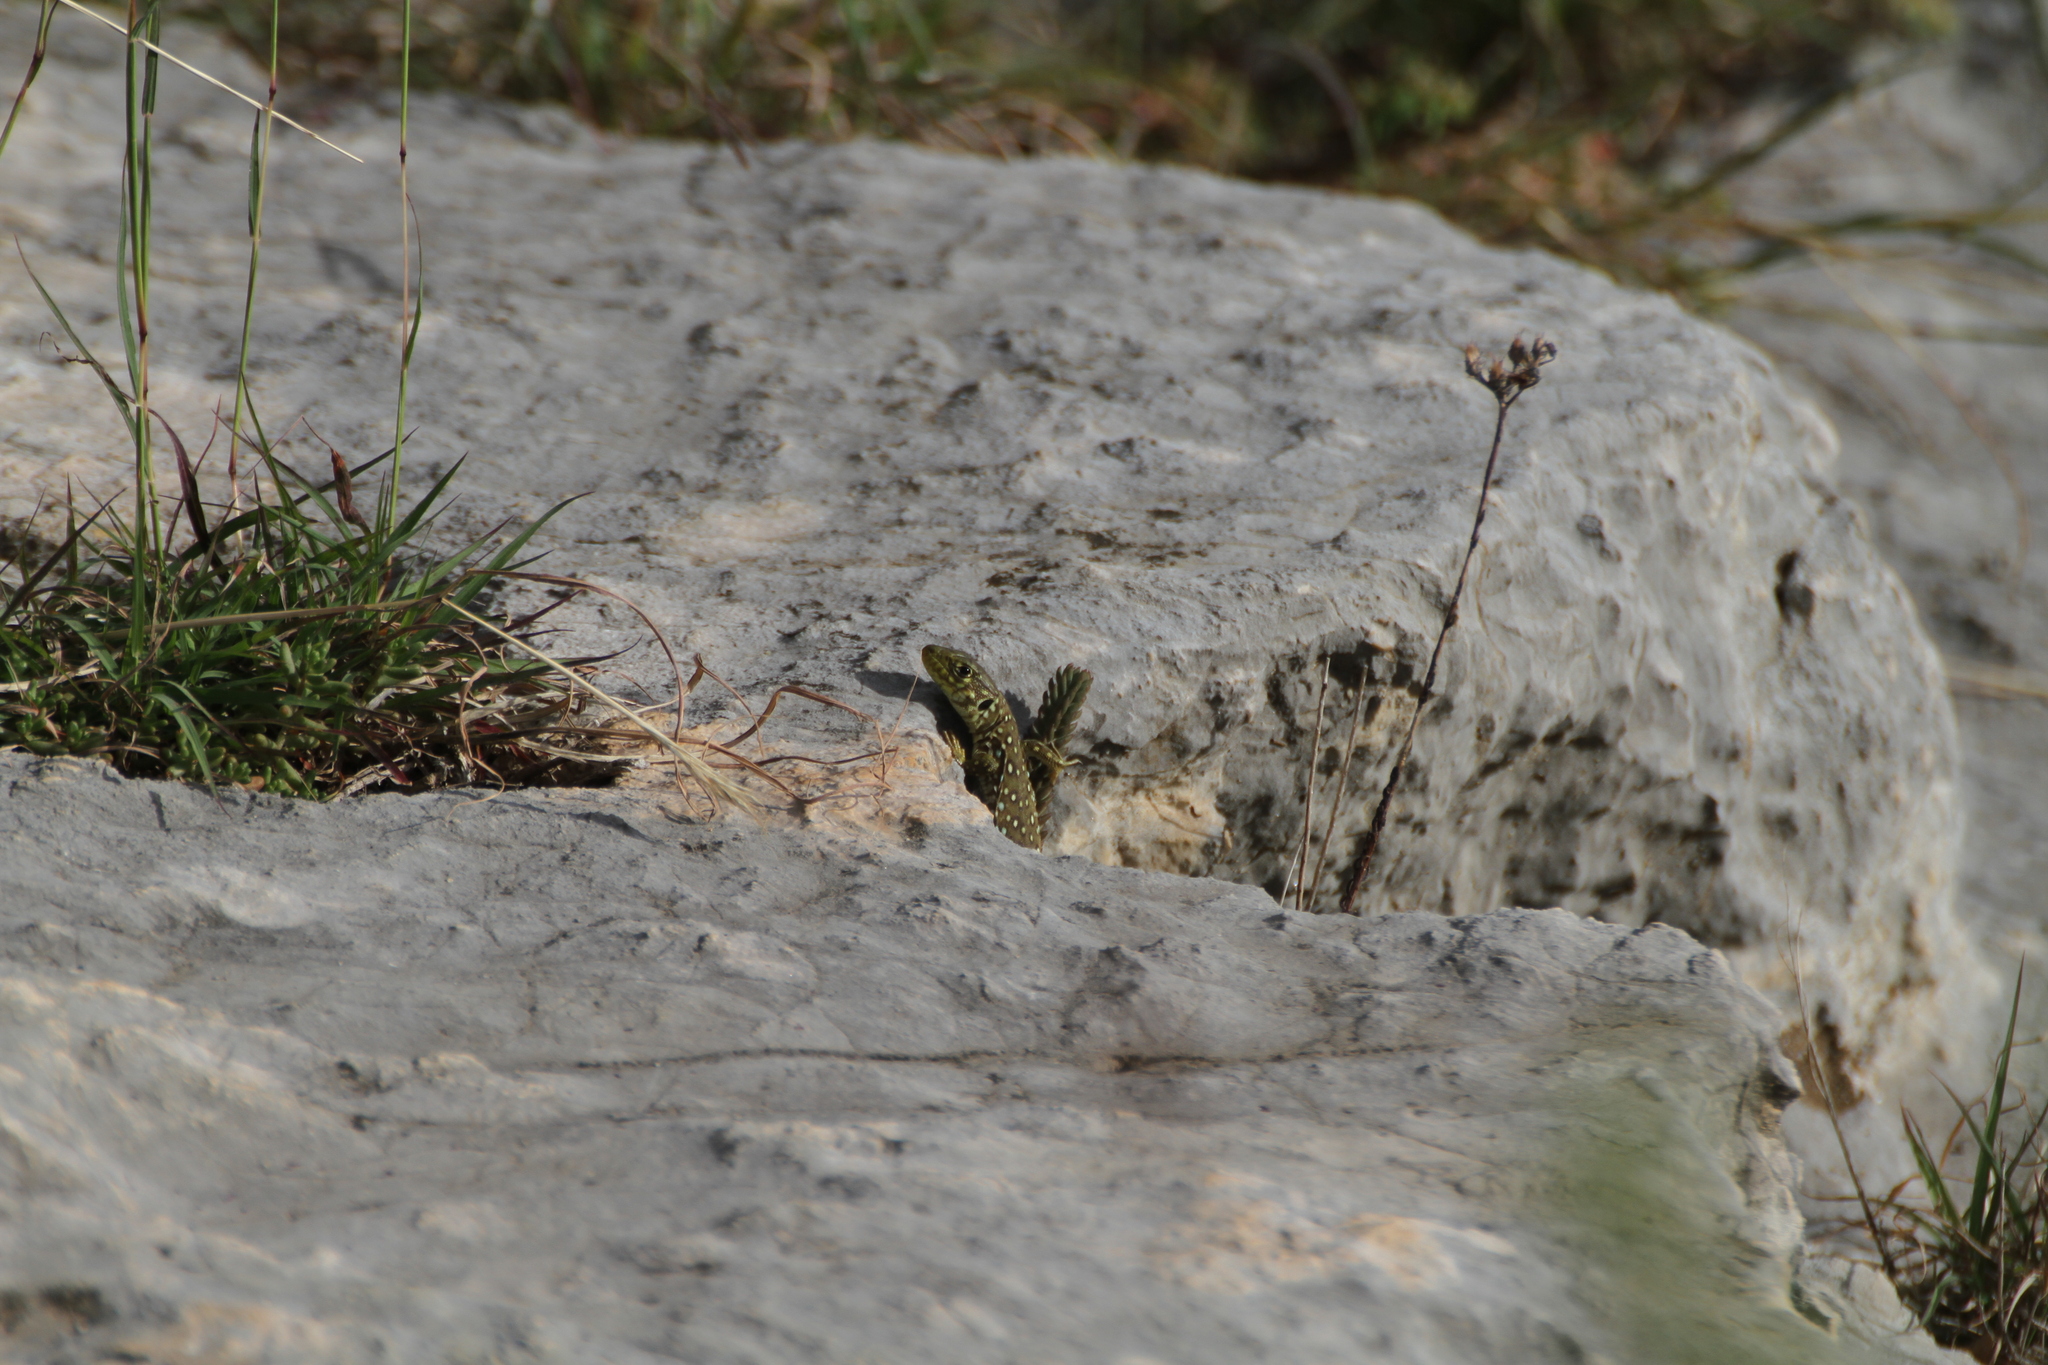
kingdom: Animalia
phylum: Chordata
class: Squamata
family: Lacertidae
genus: Timon
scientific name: Timon lepidus
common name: Ocellated lizard
